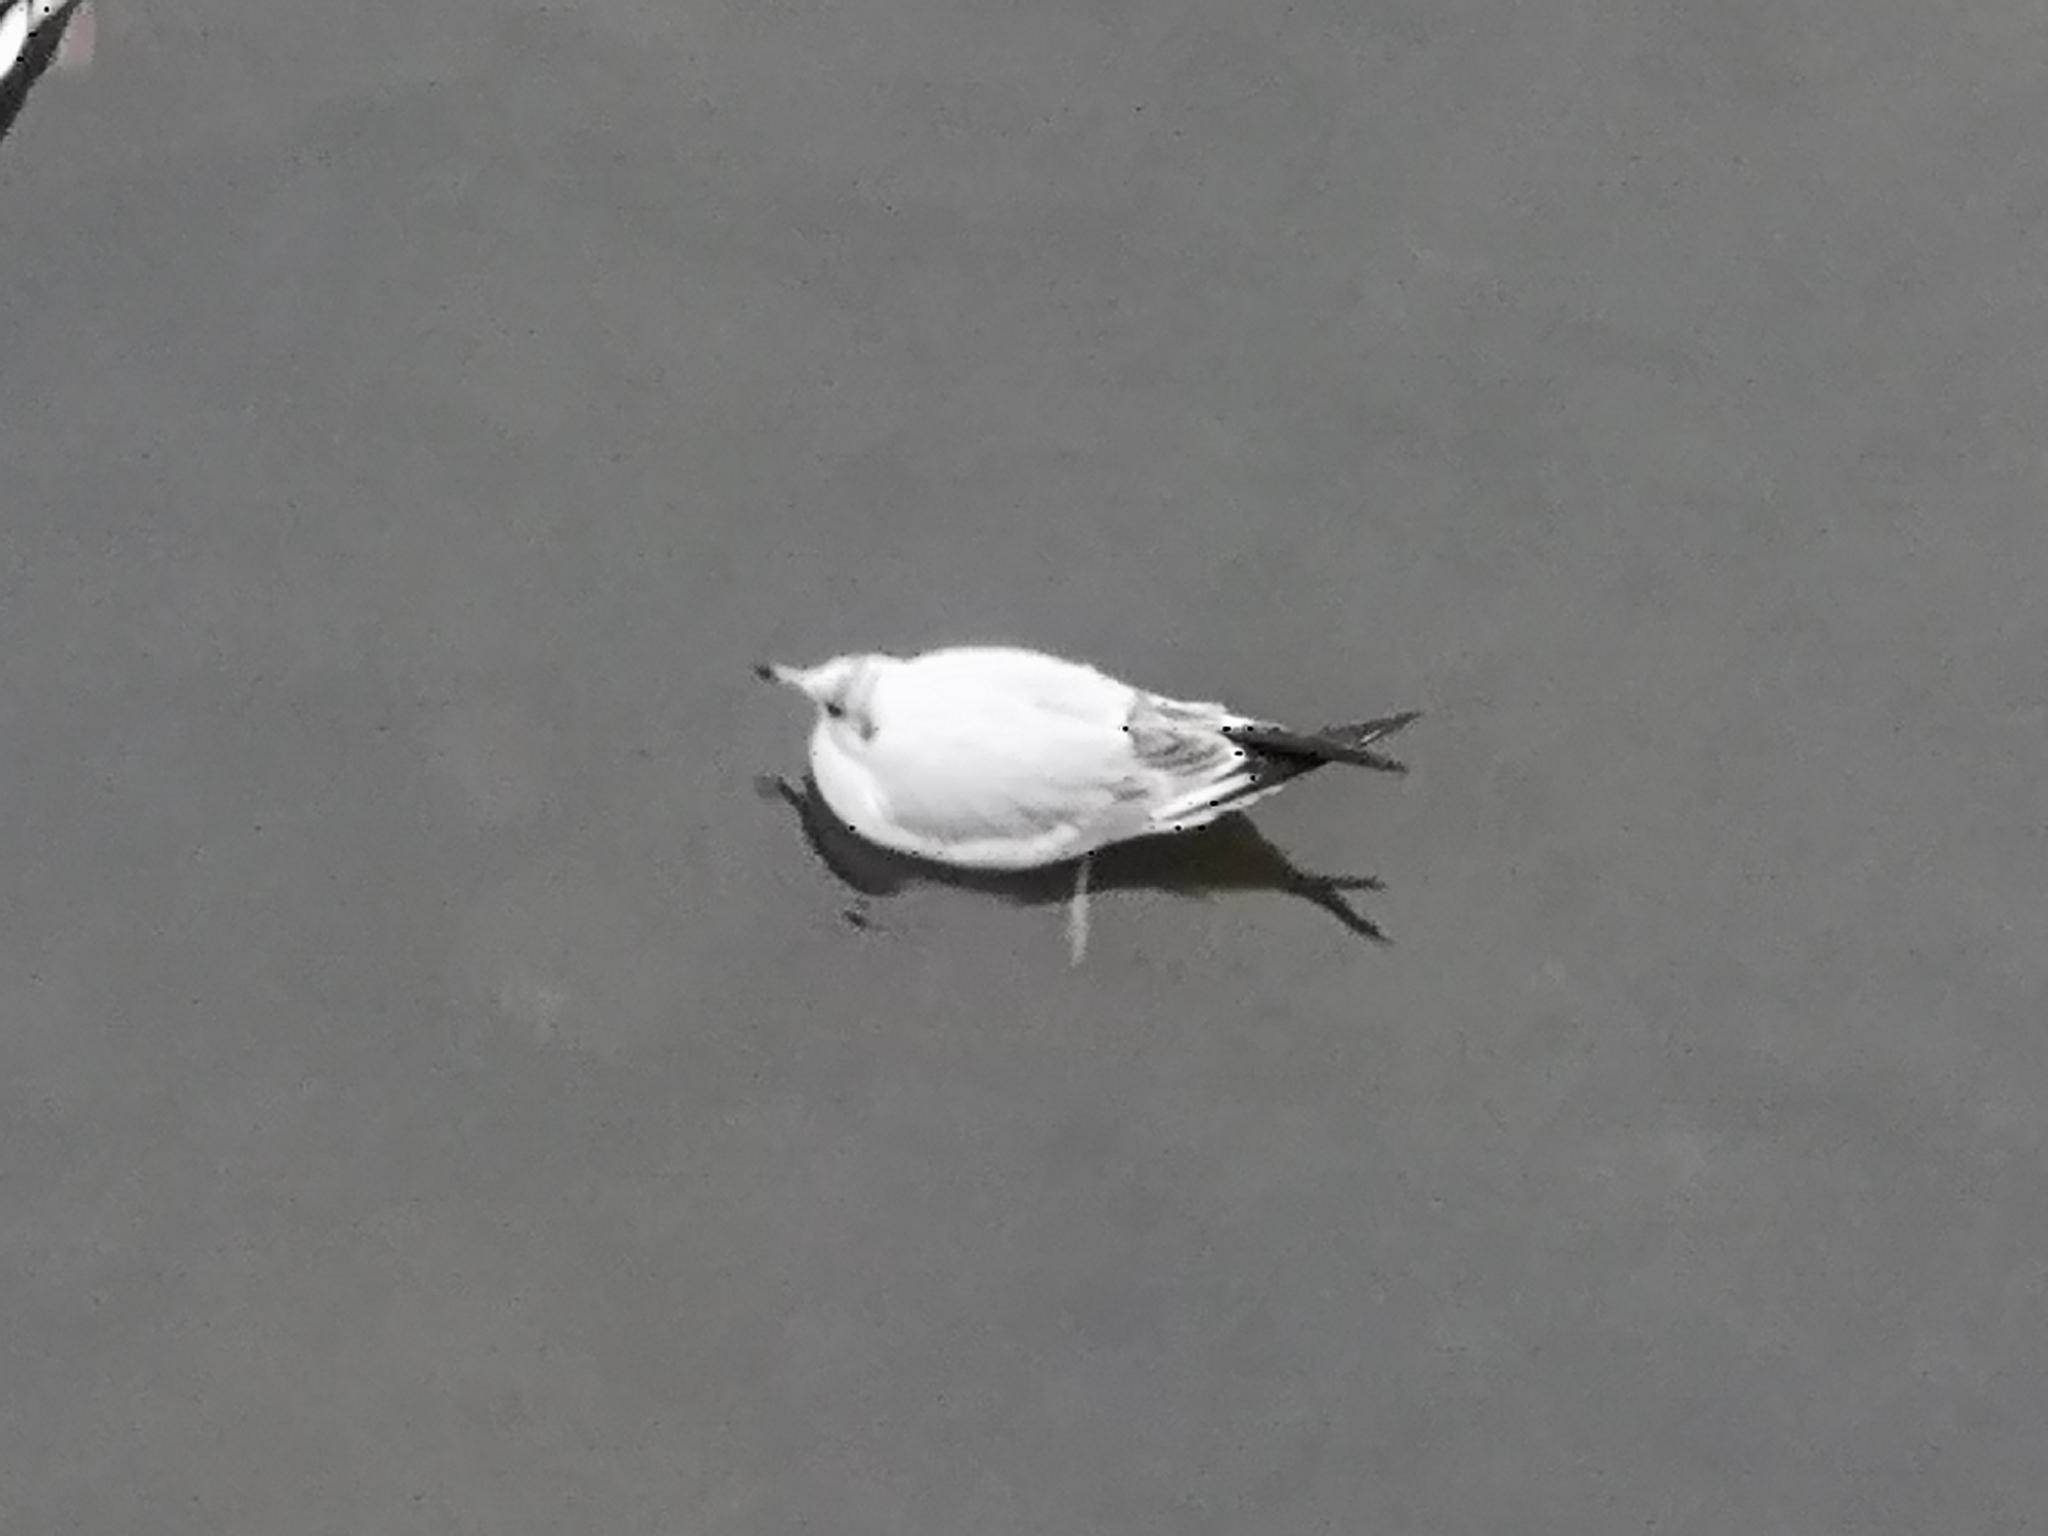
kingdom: Animalia
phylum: Chordata
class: Aves
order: Charadriiformes
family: Laridae
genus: Chroicocephalus
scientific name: Chroicocephalus ridibundus
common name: Black-headed gull
